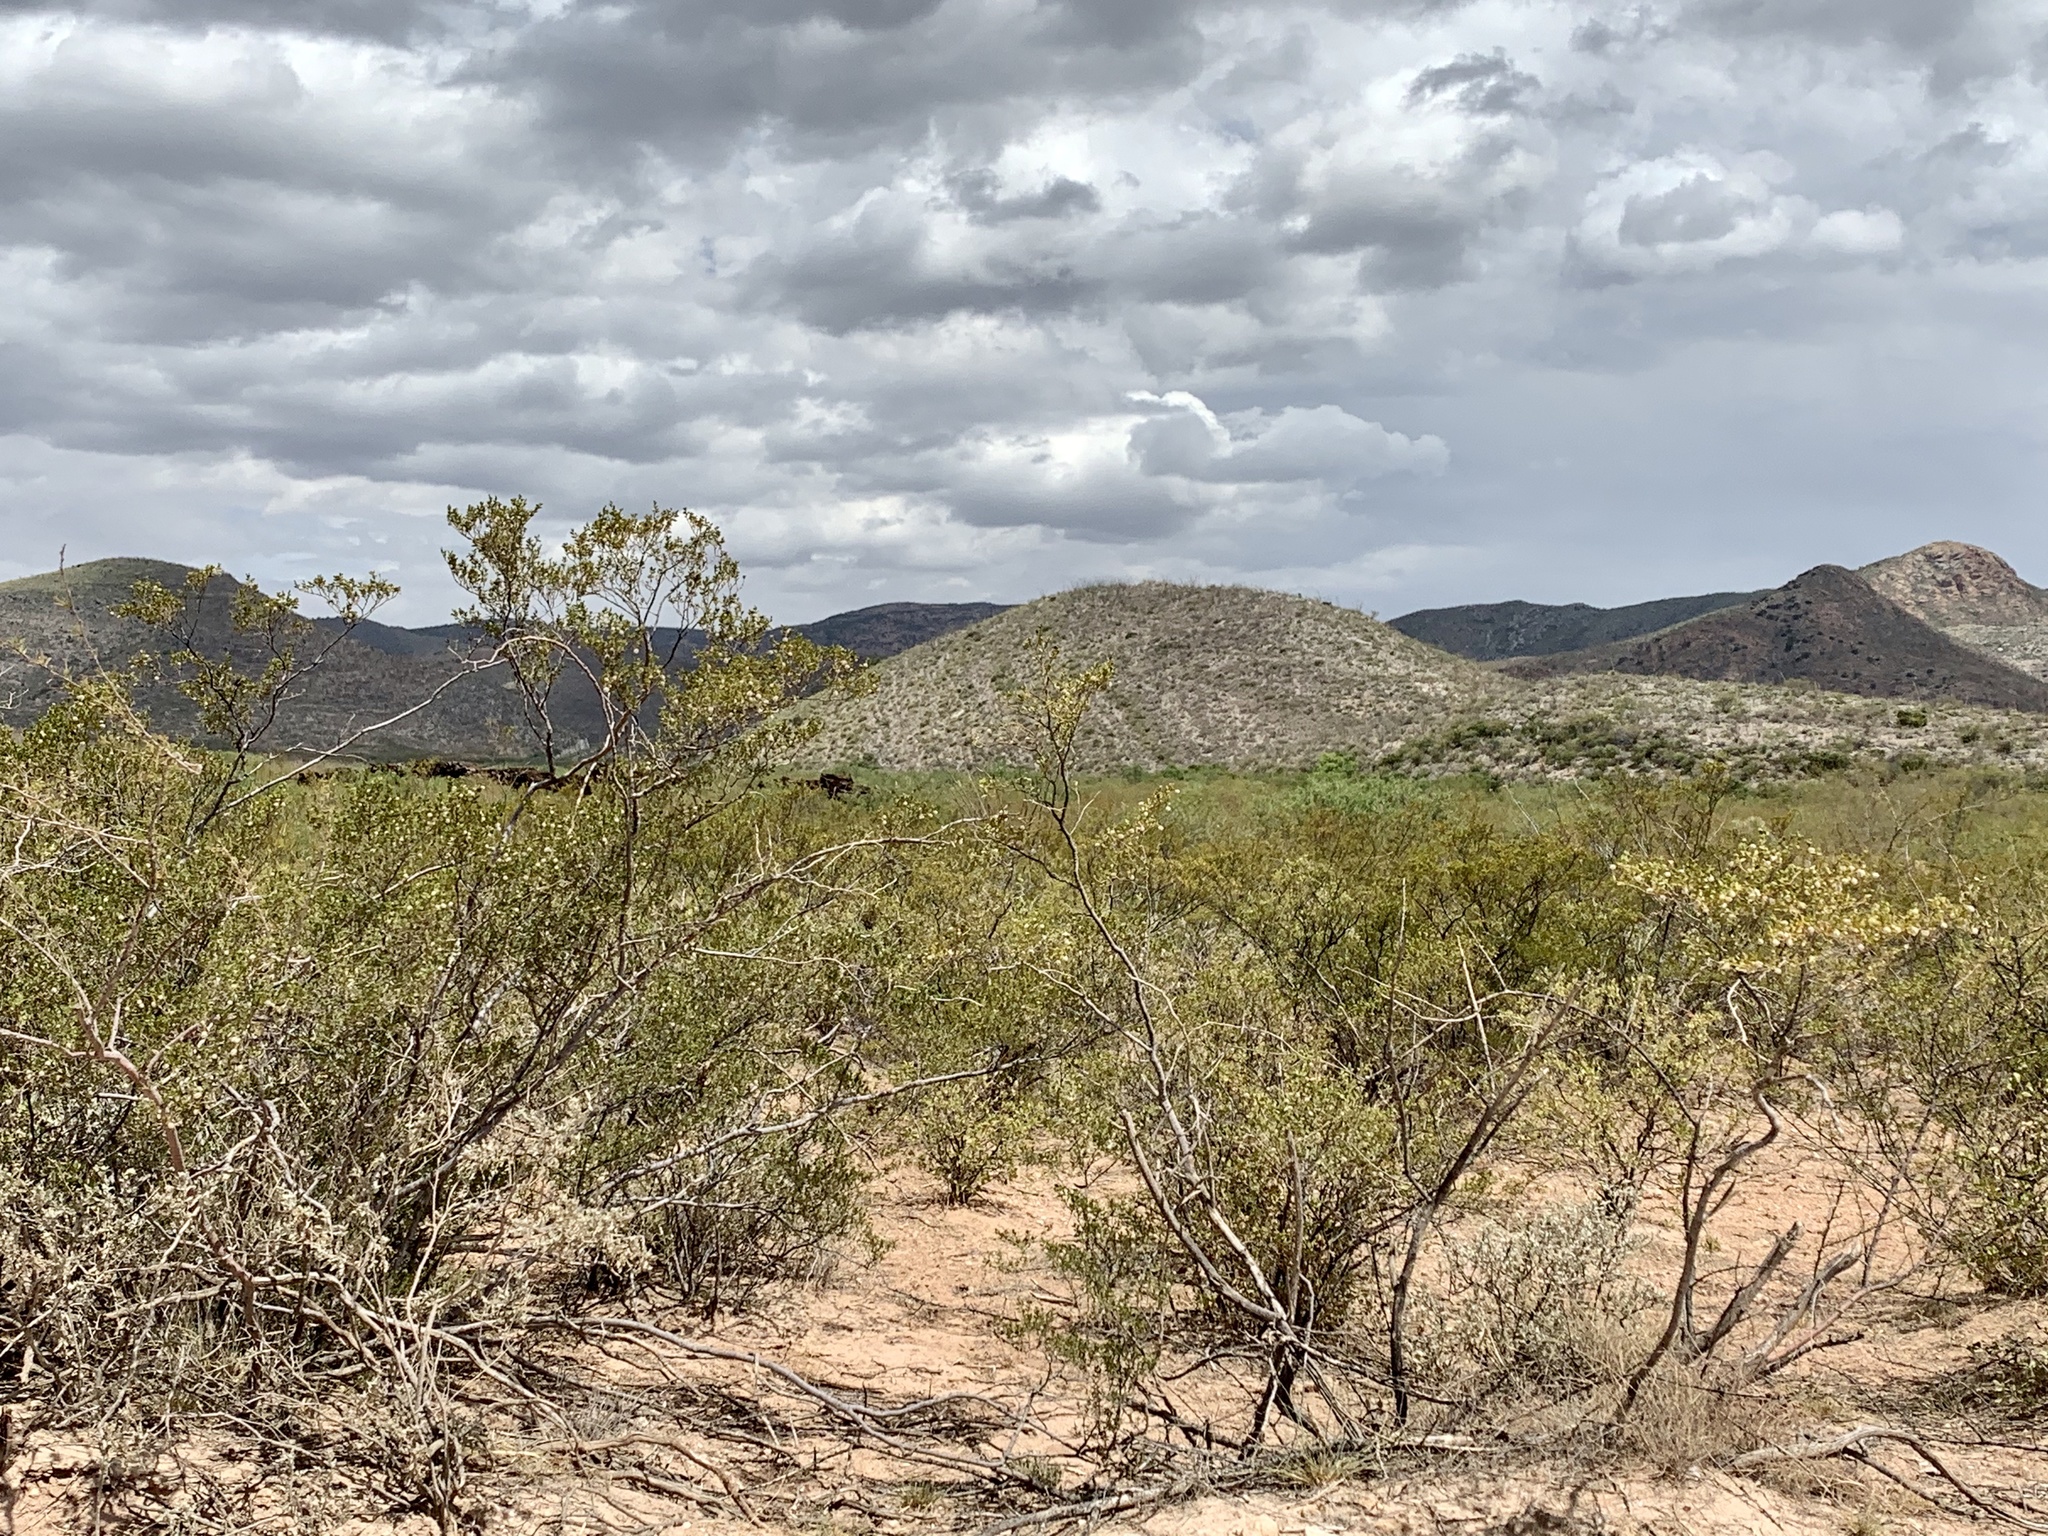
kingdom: Plantae
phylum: Tracheophyta
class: Magnoliopsida
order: Zygophyllales
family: Zygophyllaceae
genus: Larrea
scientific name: Larrea tridentata
